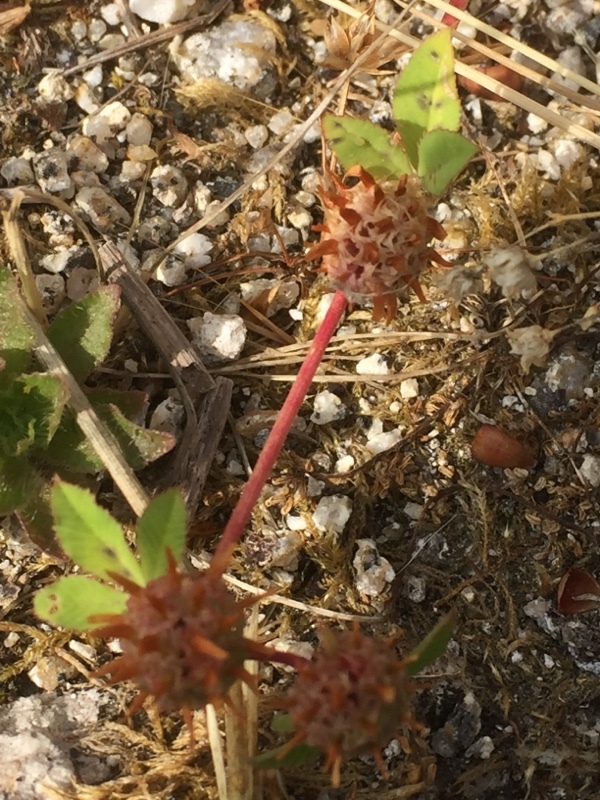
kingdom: Plantae
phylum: Tracheophyta
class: Magnoliopsida
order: Fabales
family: Fabaceae
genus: Trifolium
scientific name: Trifolium glomeratum
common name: Clustered clover
